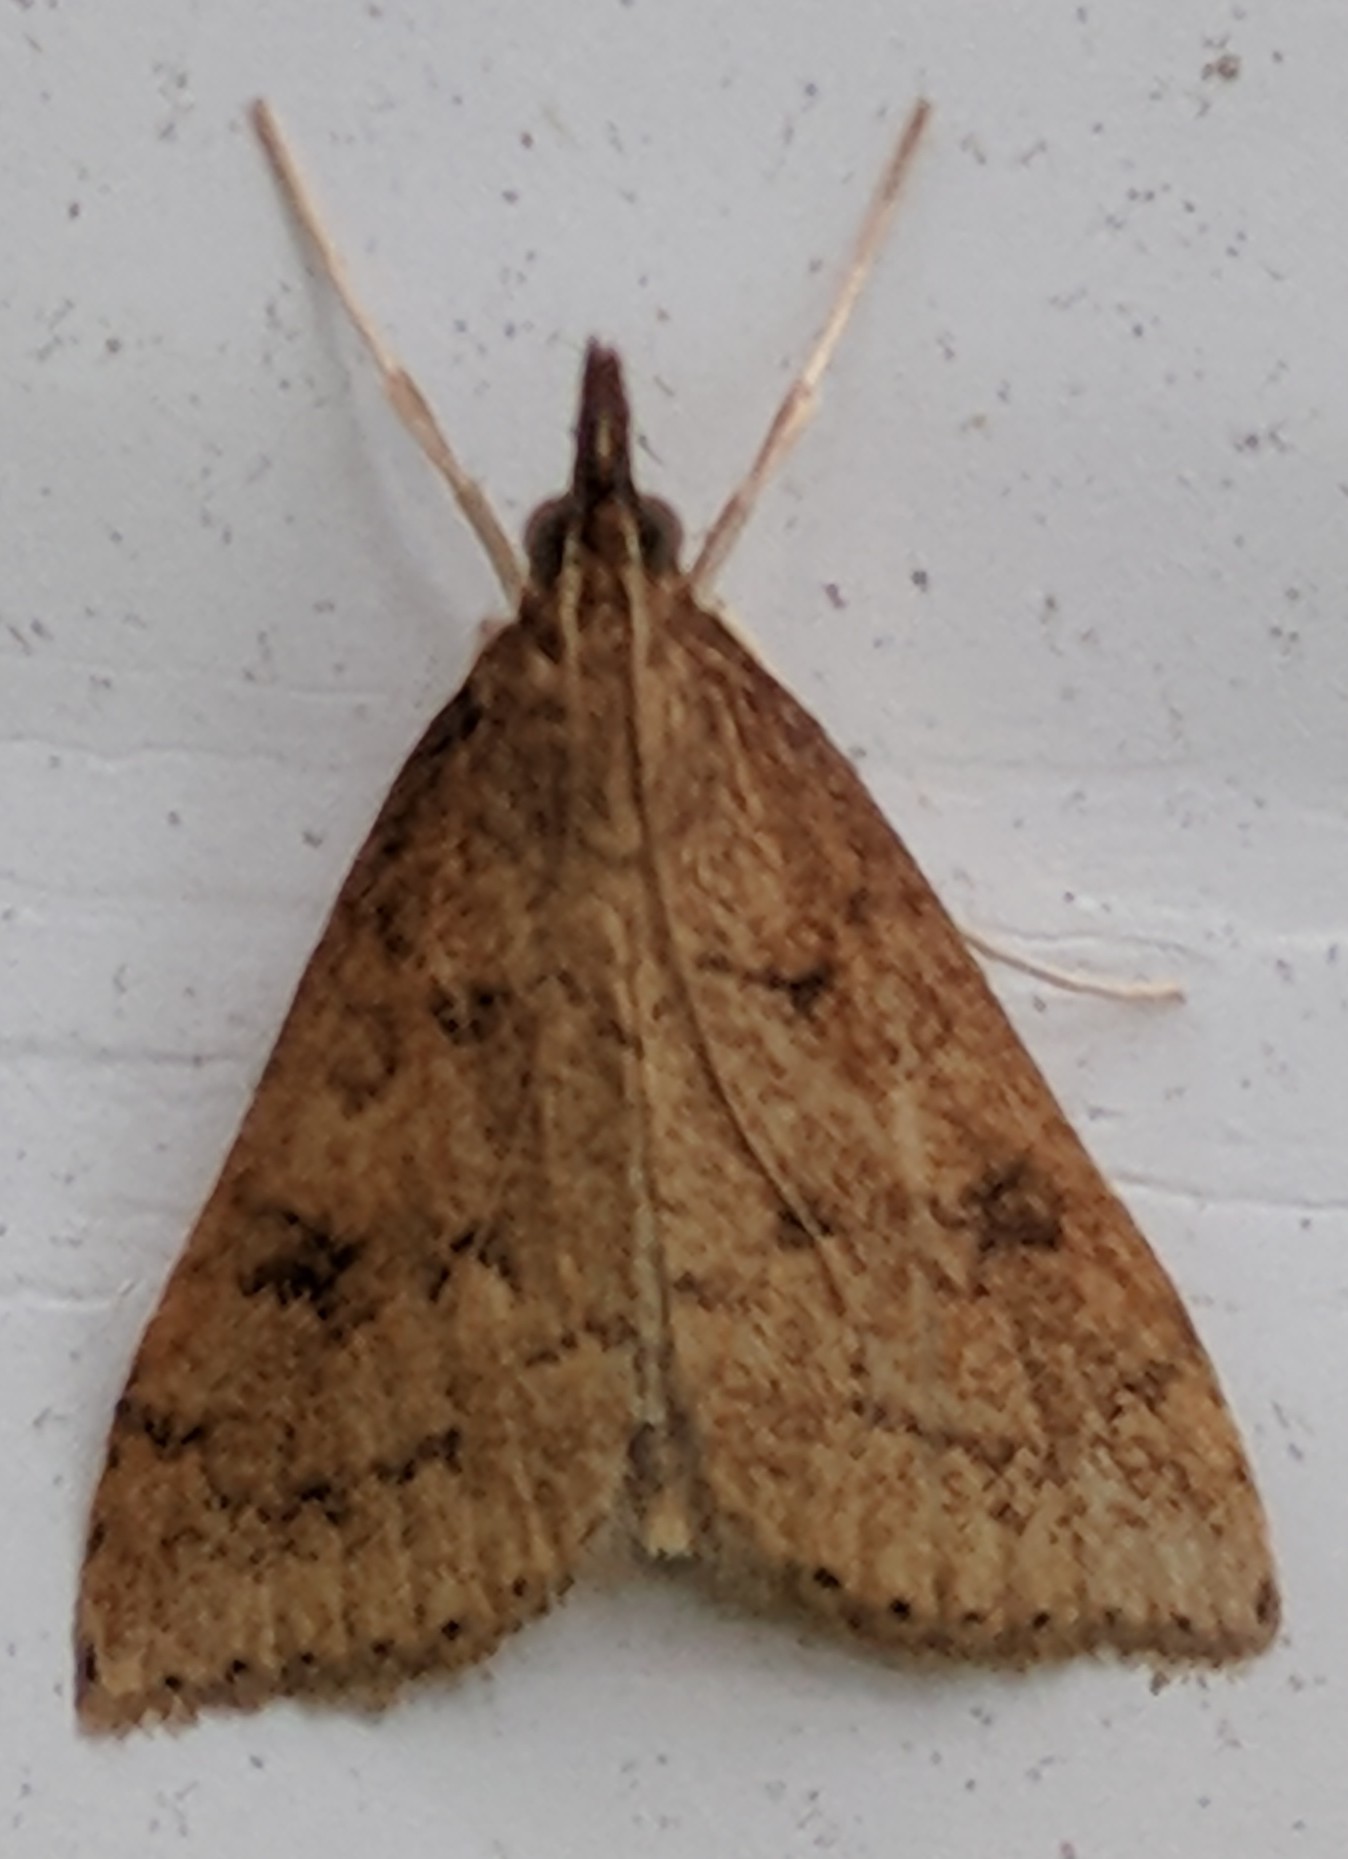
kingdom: Animalia
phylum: Arthropoda
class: Insecta
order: Lepidoptera
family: Crambidae
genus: Udea
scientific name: Udea rubigalis
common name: Celery leaftier moth
